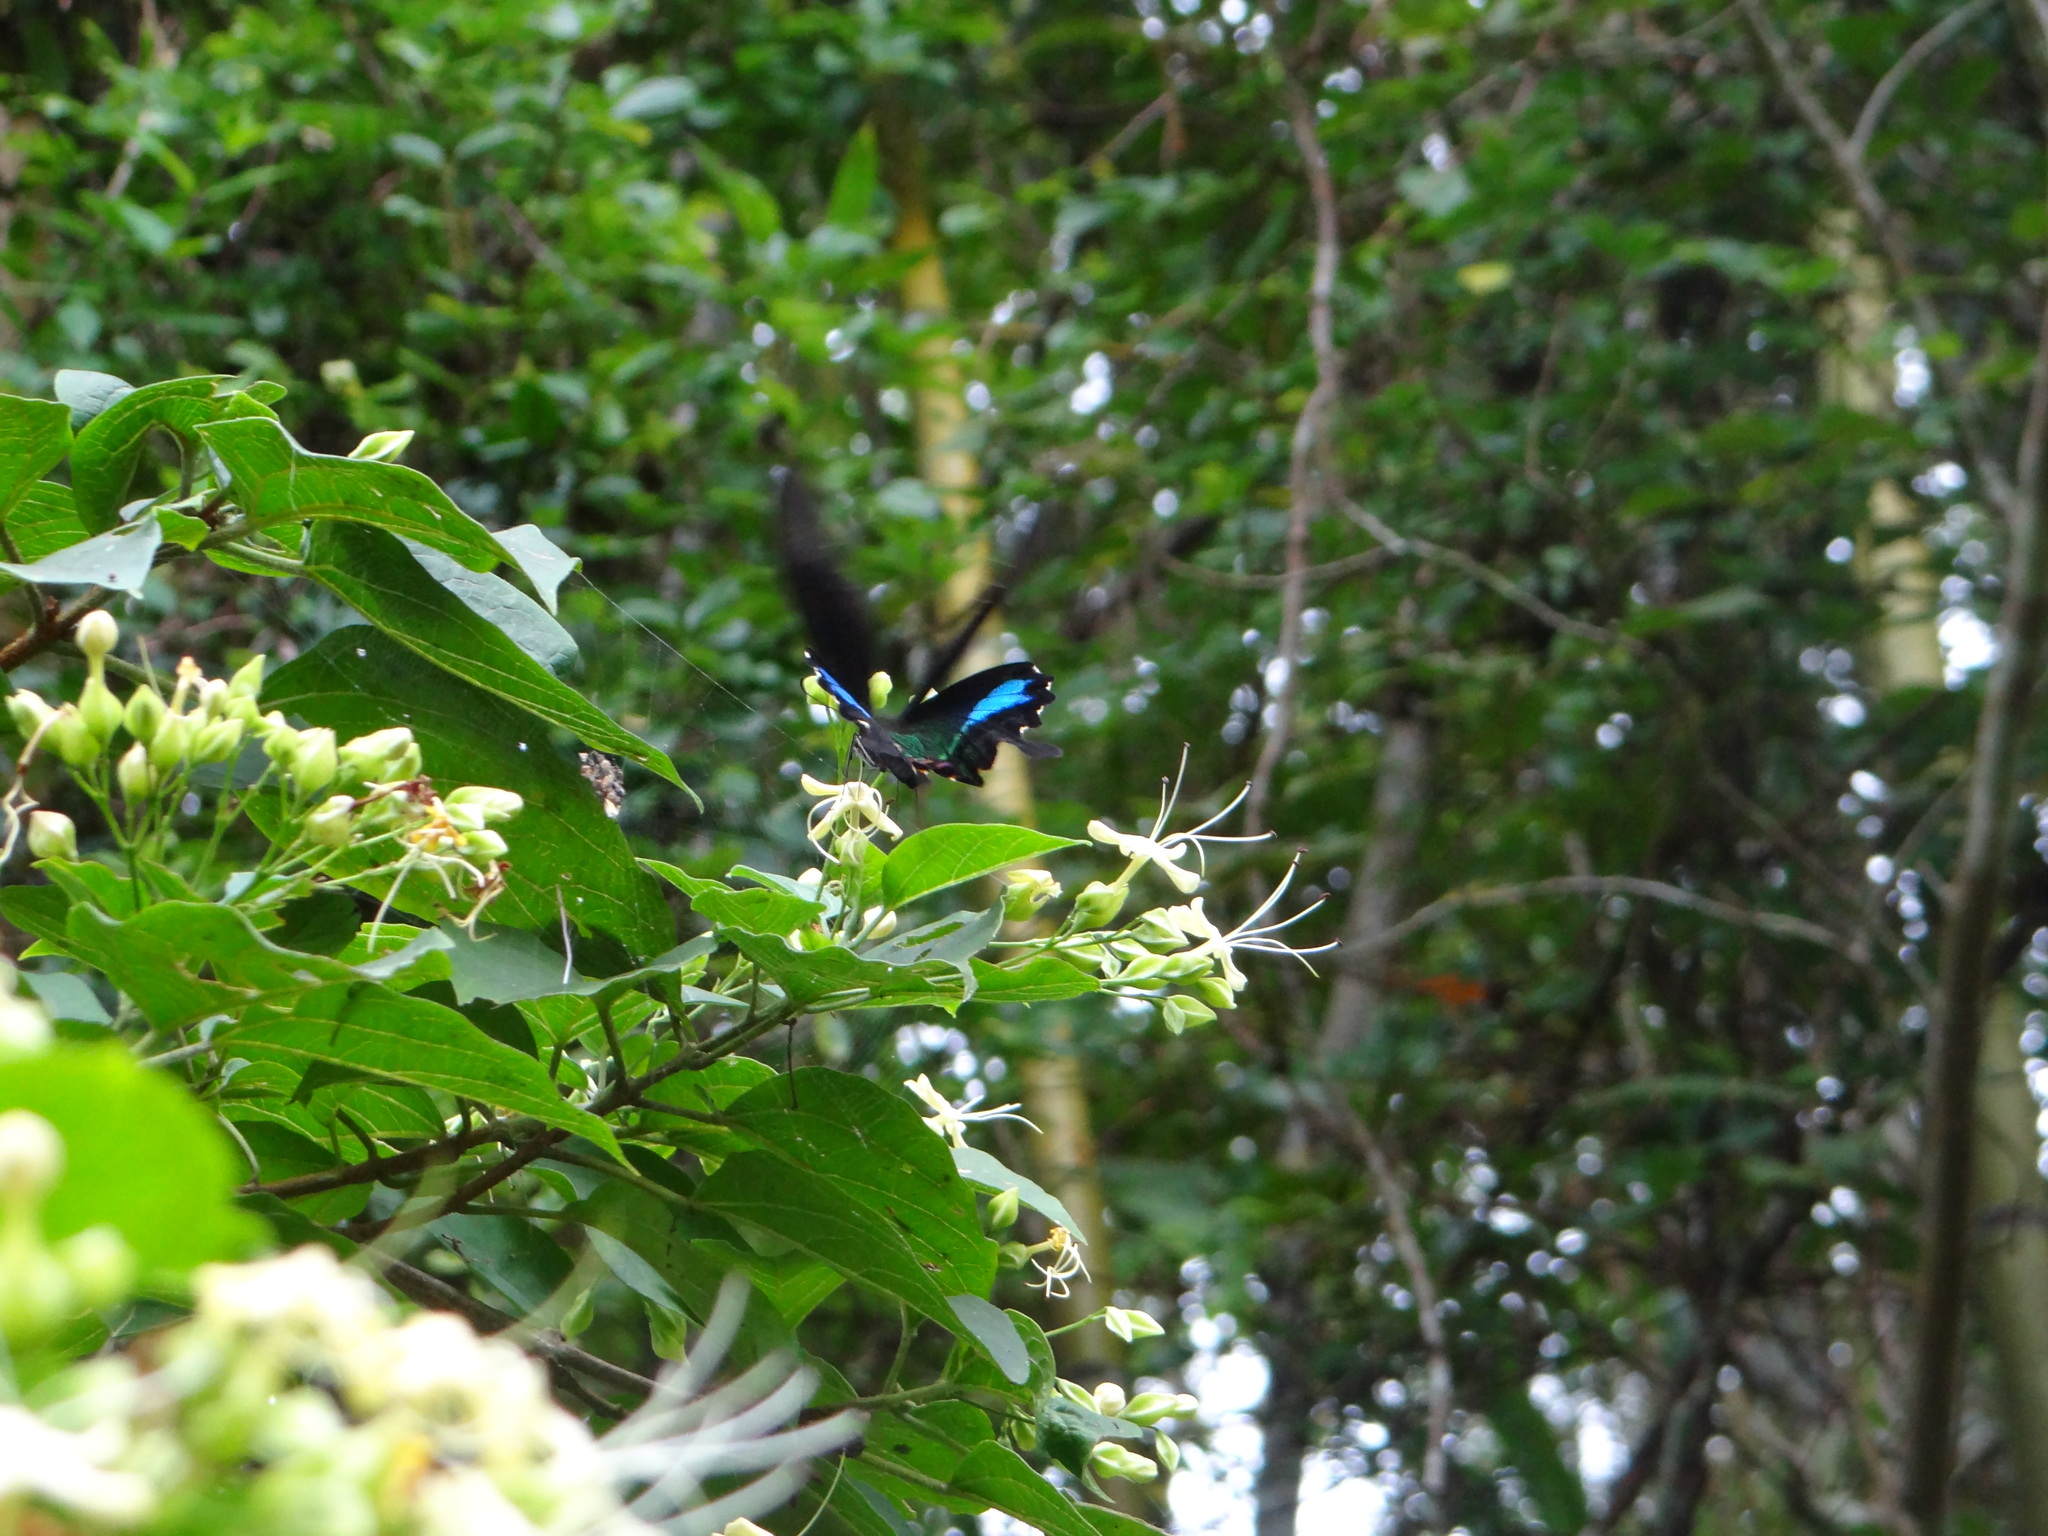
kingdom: Animalia
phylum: Arthropoda
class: Insecta
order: Lepidoptera
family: Papilionidae
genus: Papilio
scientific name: Papilio hermosanus
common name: Taiwanese glazed swallowtail
